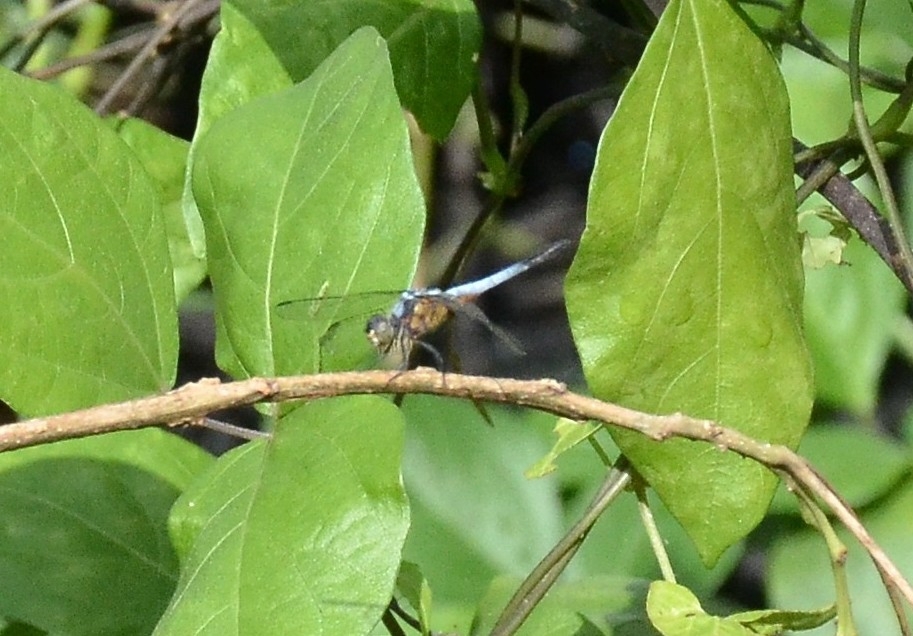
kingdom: Animalia
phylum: Arthropoda
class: Insecta
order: Odonata
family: Libellulidae
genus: Brachydiplax
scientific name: Brachydiplax chalybea
